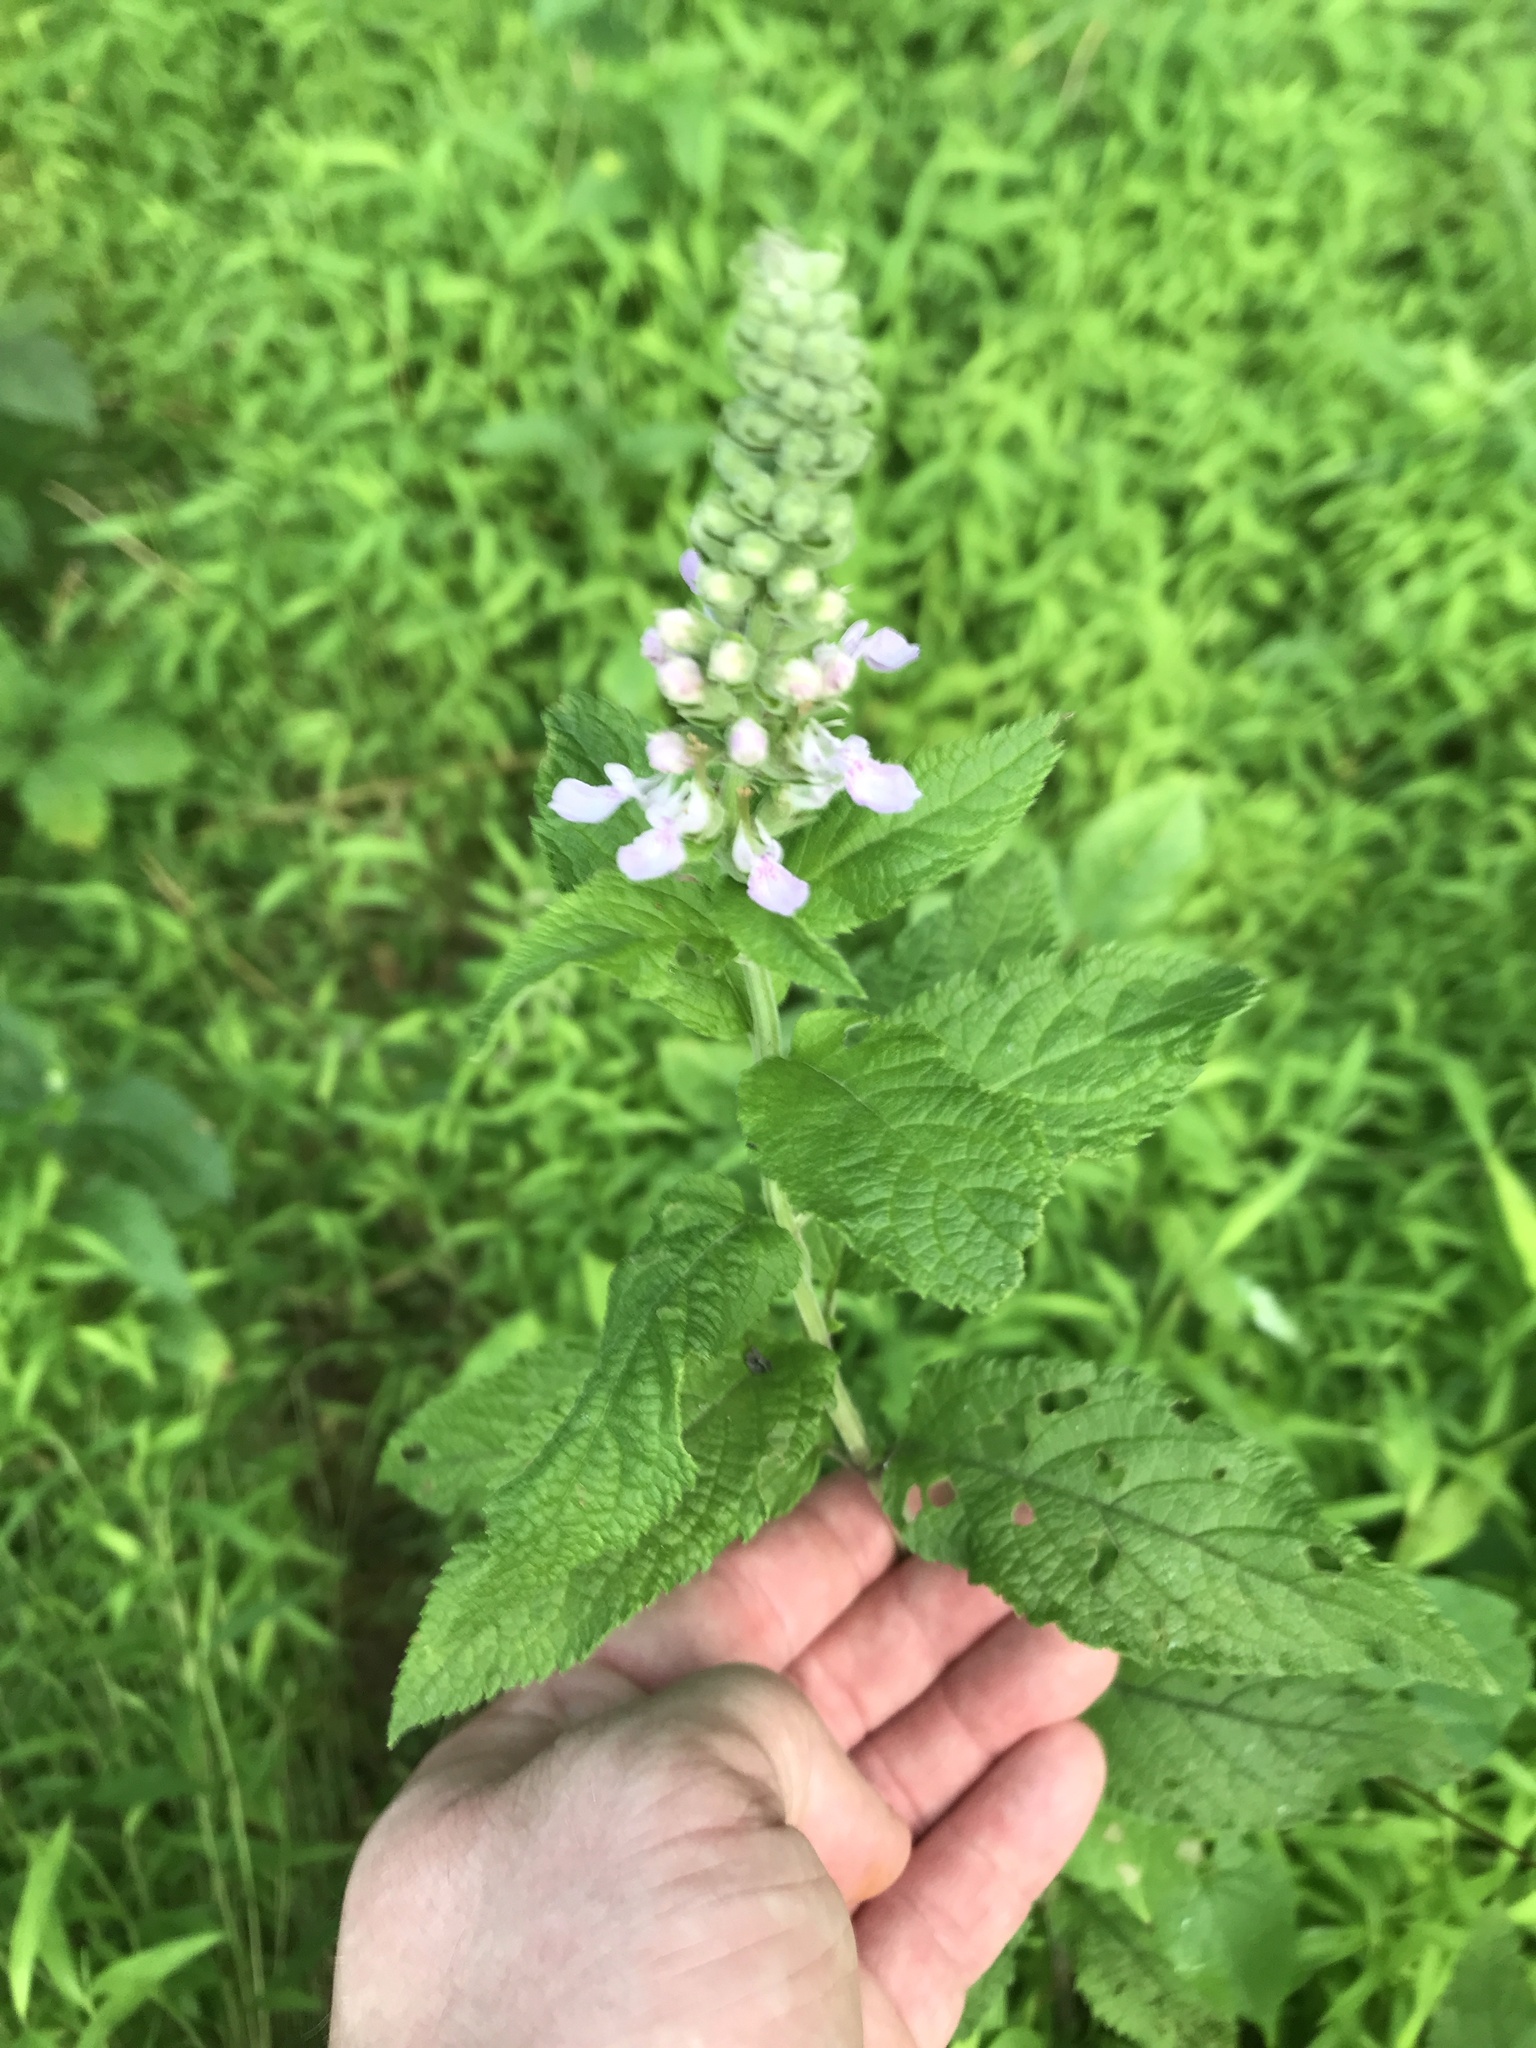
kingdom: Plantae
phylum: Tracheophyta
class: Magnoliopsida
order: Lamiales
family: Lamiaceae
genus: Teucrium
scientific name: Teucrium canadense
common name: American germander
